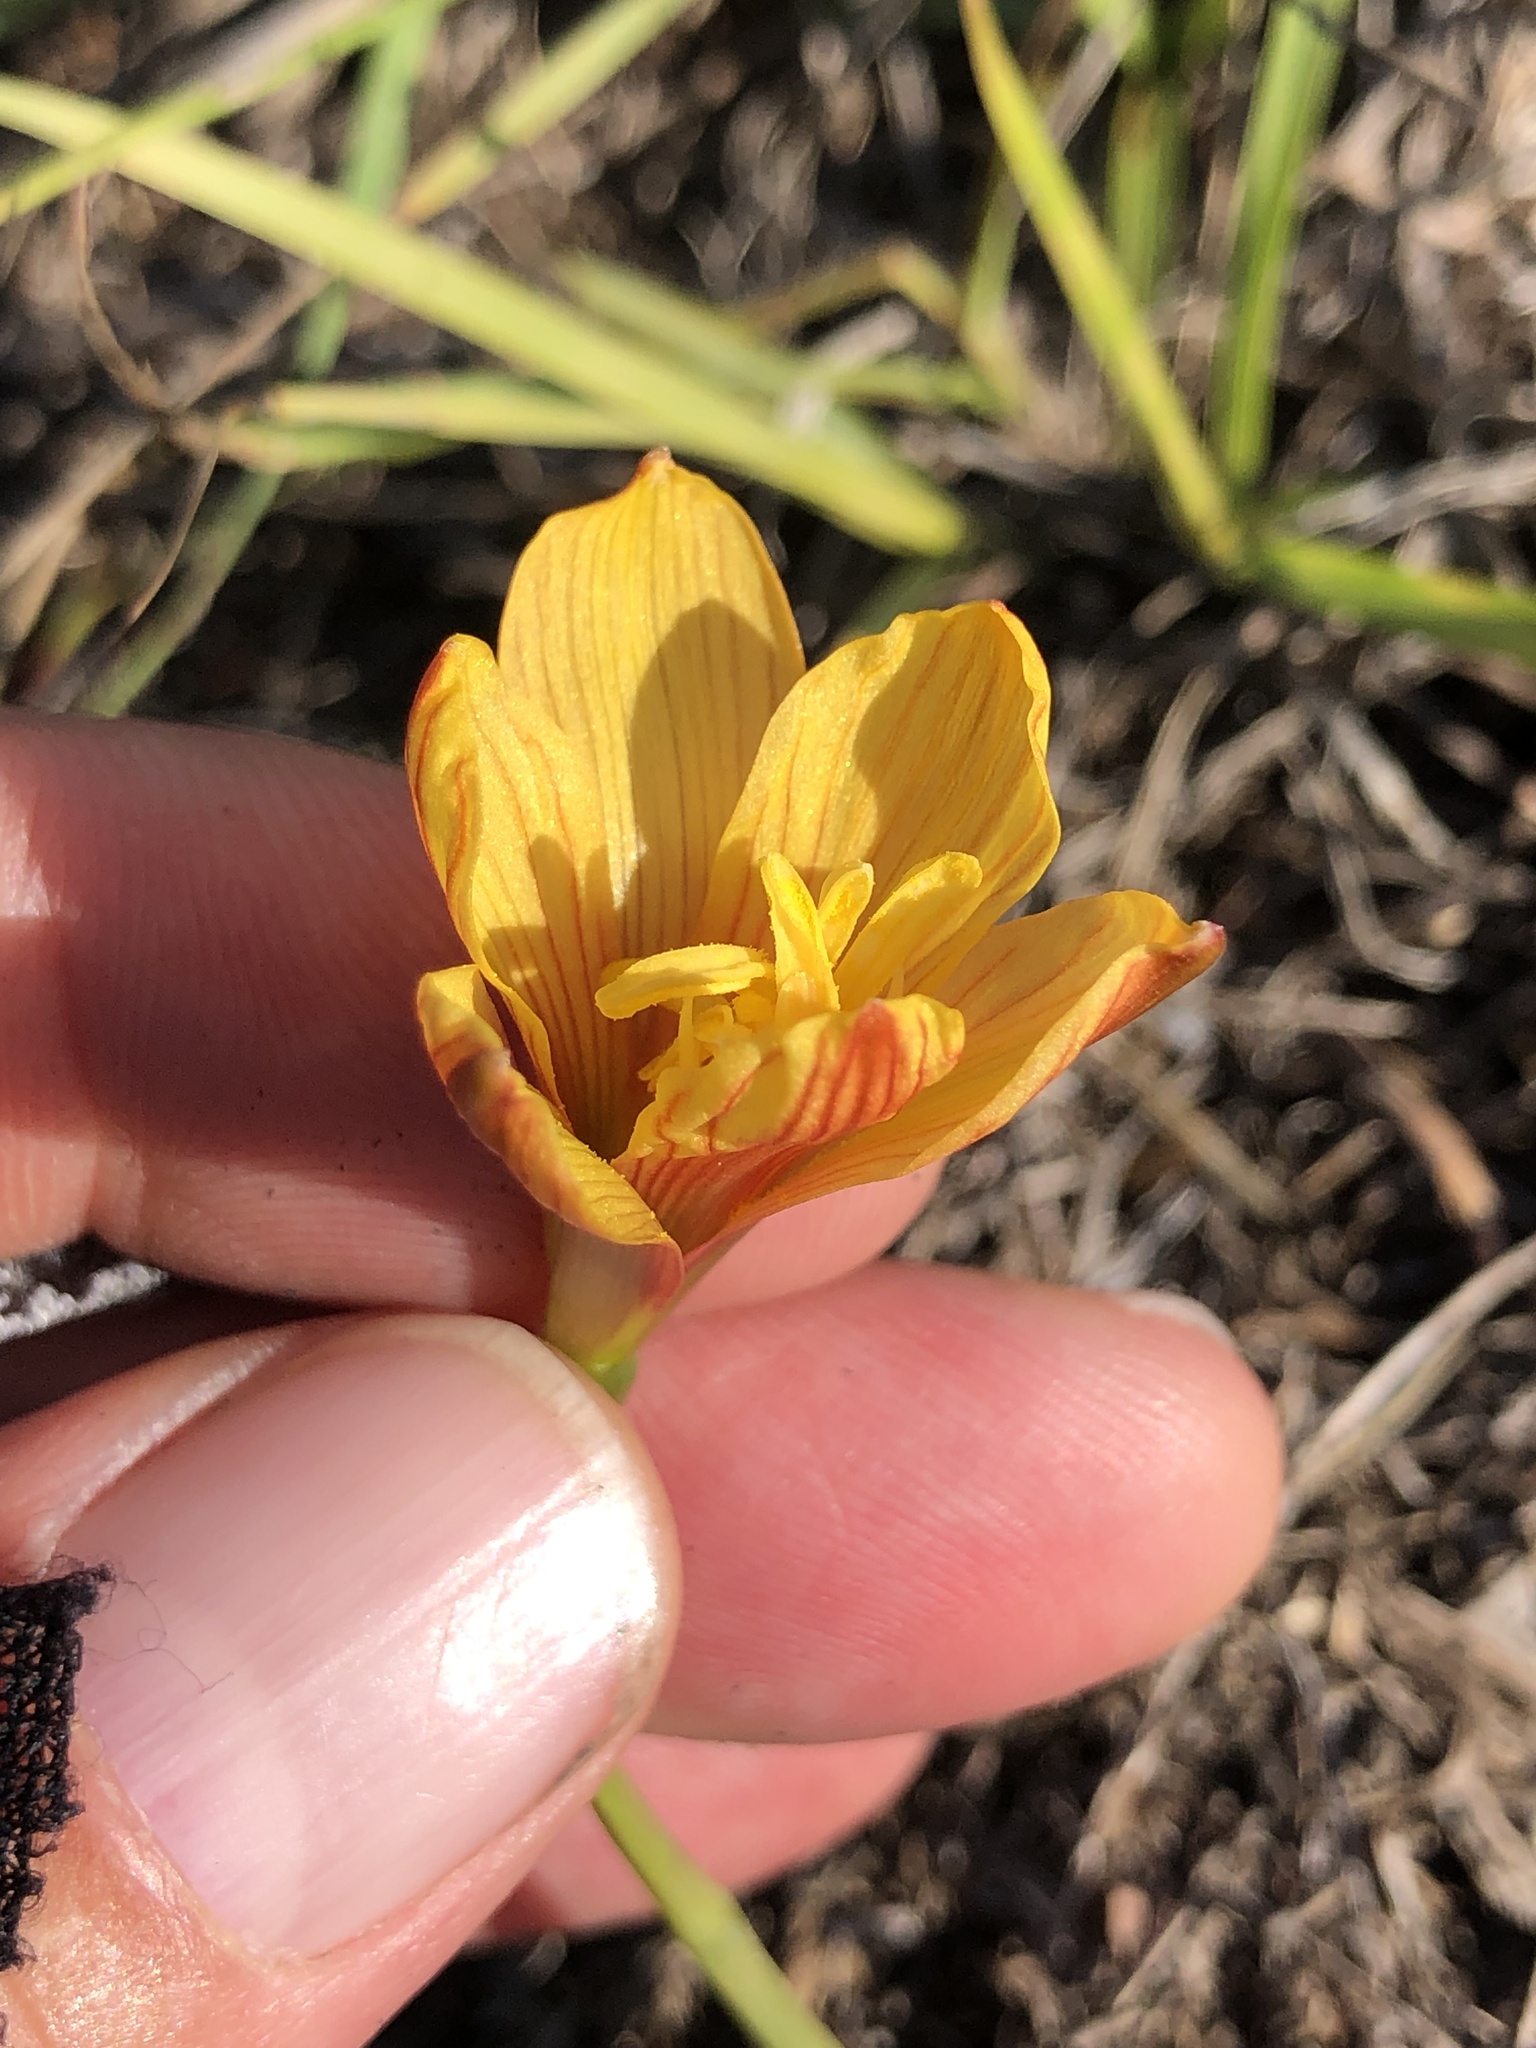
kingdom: Plantae
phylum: Tracheophyta
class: Liliopsida
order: Asparagales
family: Amaryllidaceae
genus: Zephyranthes
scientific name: Zephyranthes tubispatha
